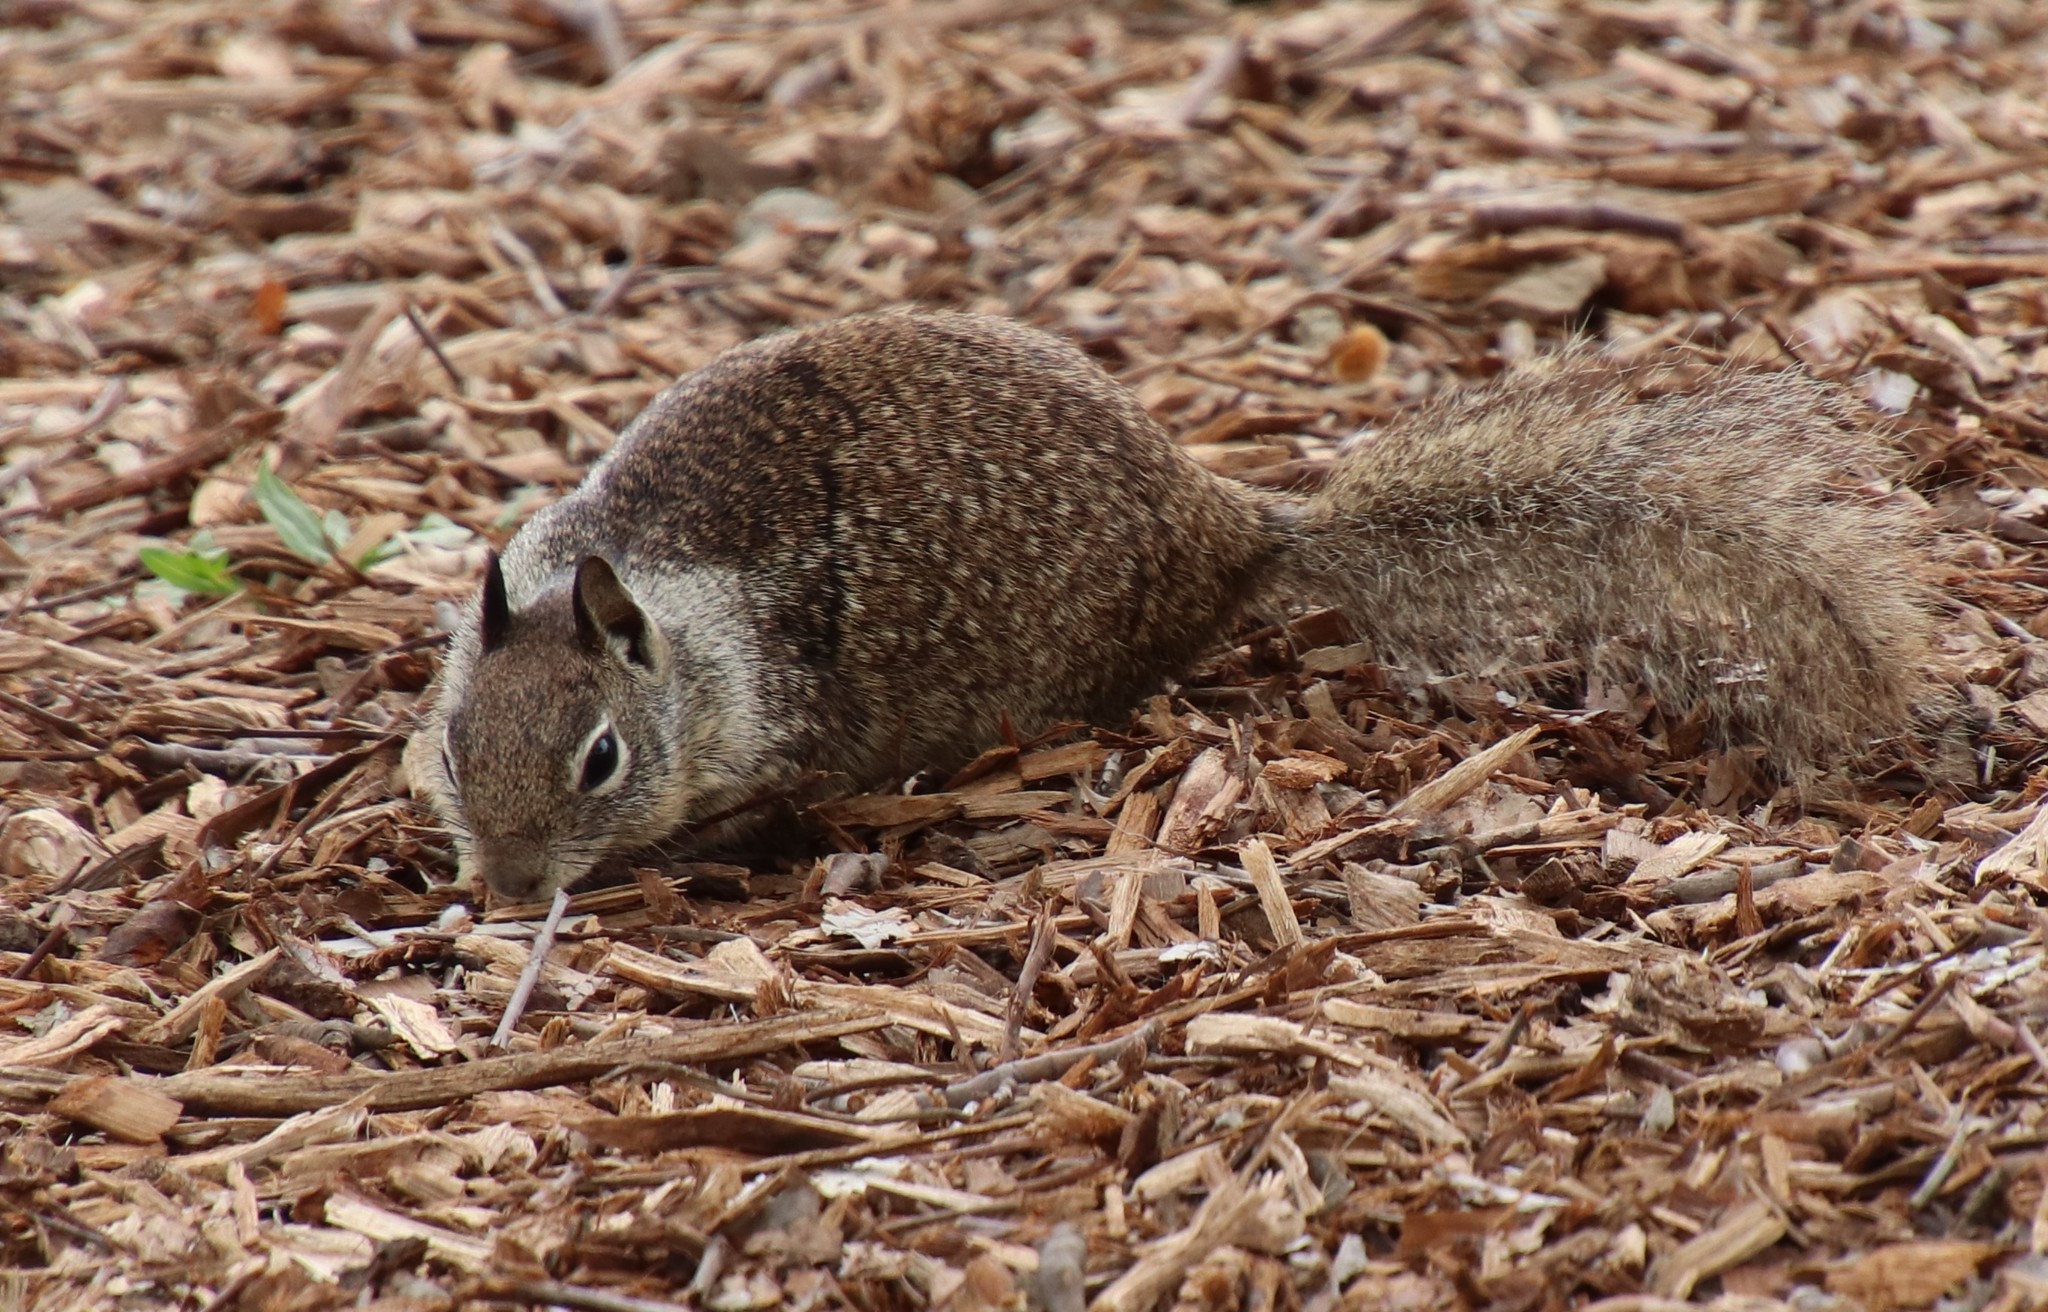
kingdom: Animalia
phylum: Chordata
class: Mammalia
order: Rodentia
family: Sciuridae
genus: Otospermophilus
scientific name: Otospermophilus beecheyi
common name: California ground squirrel
